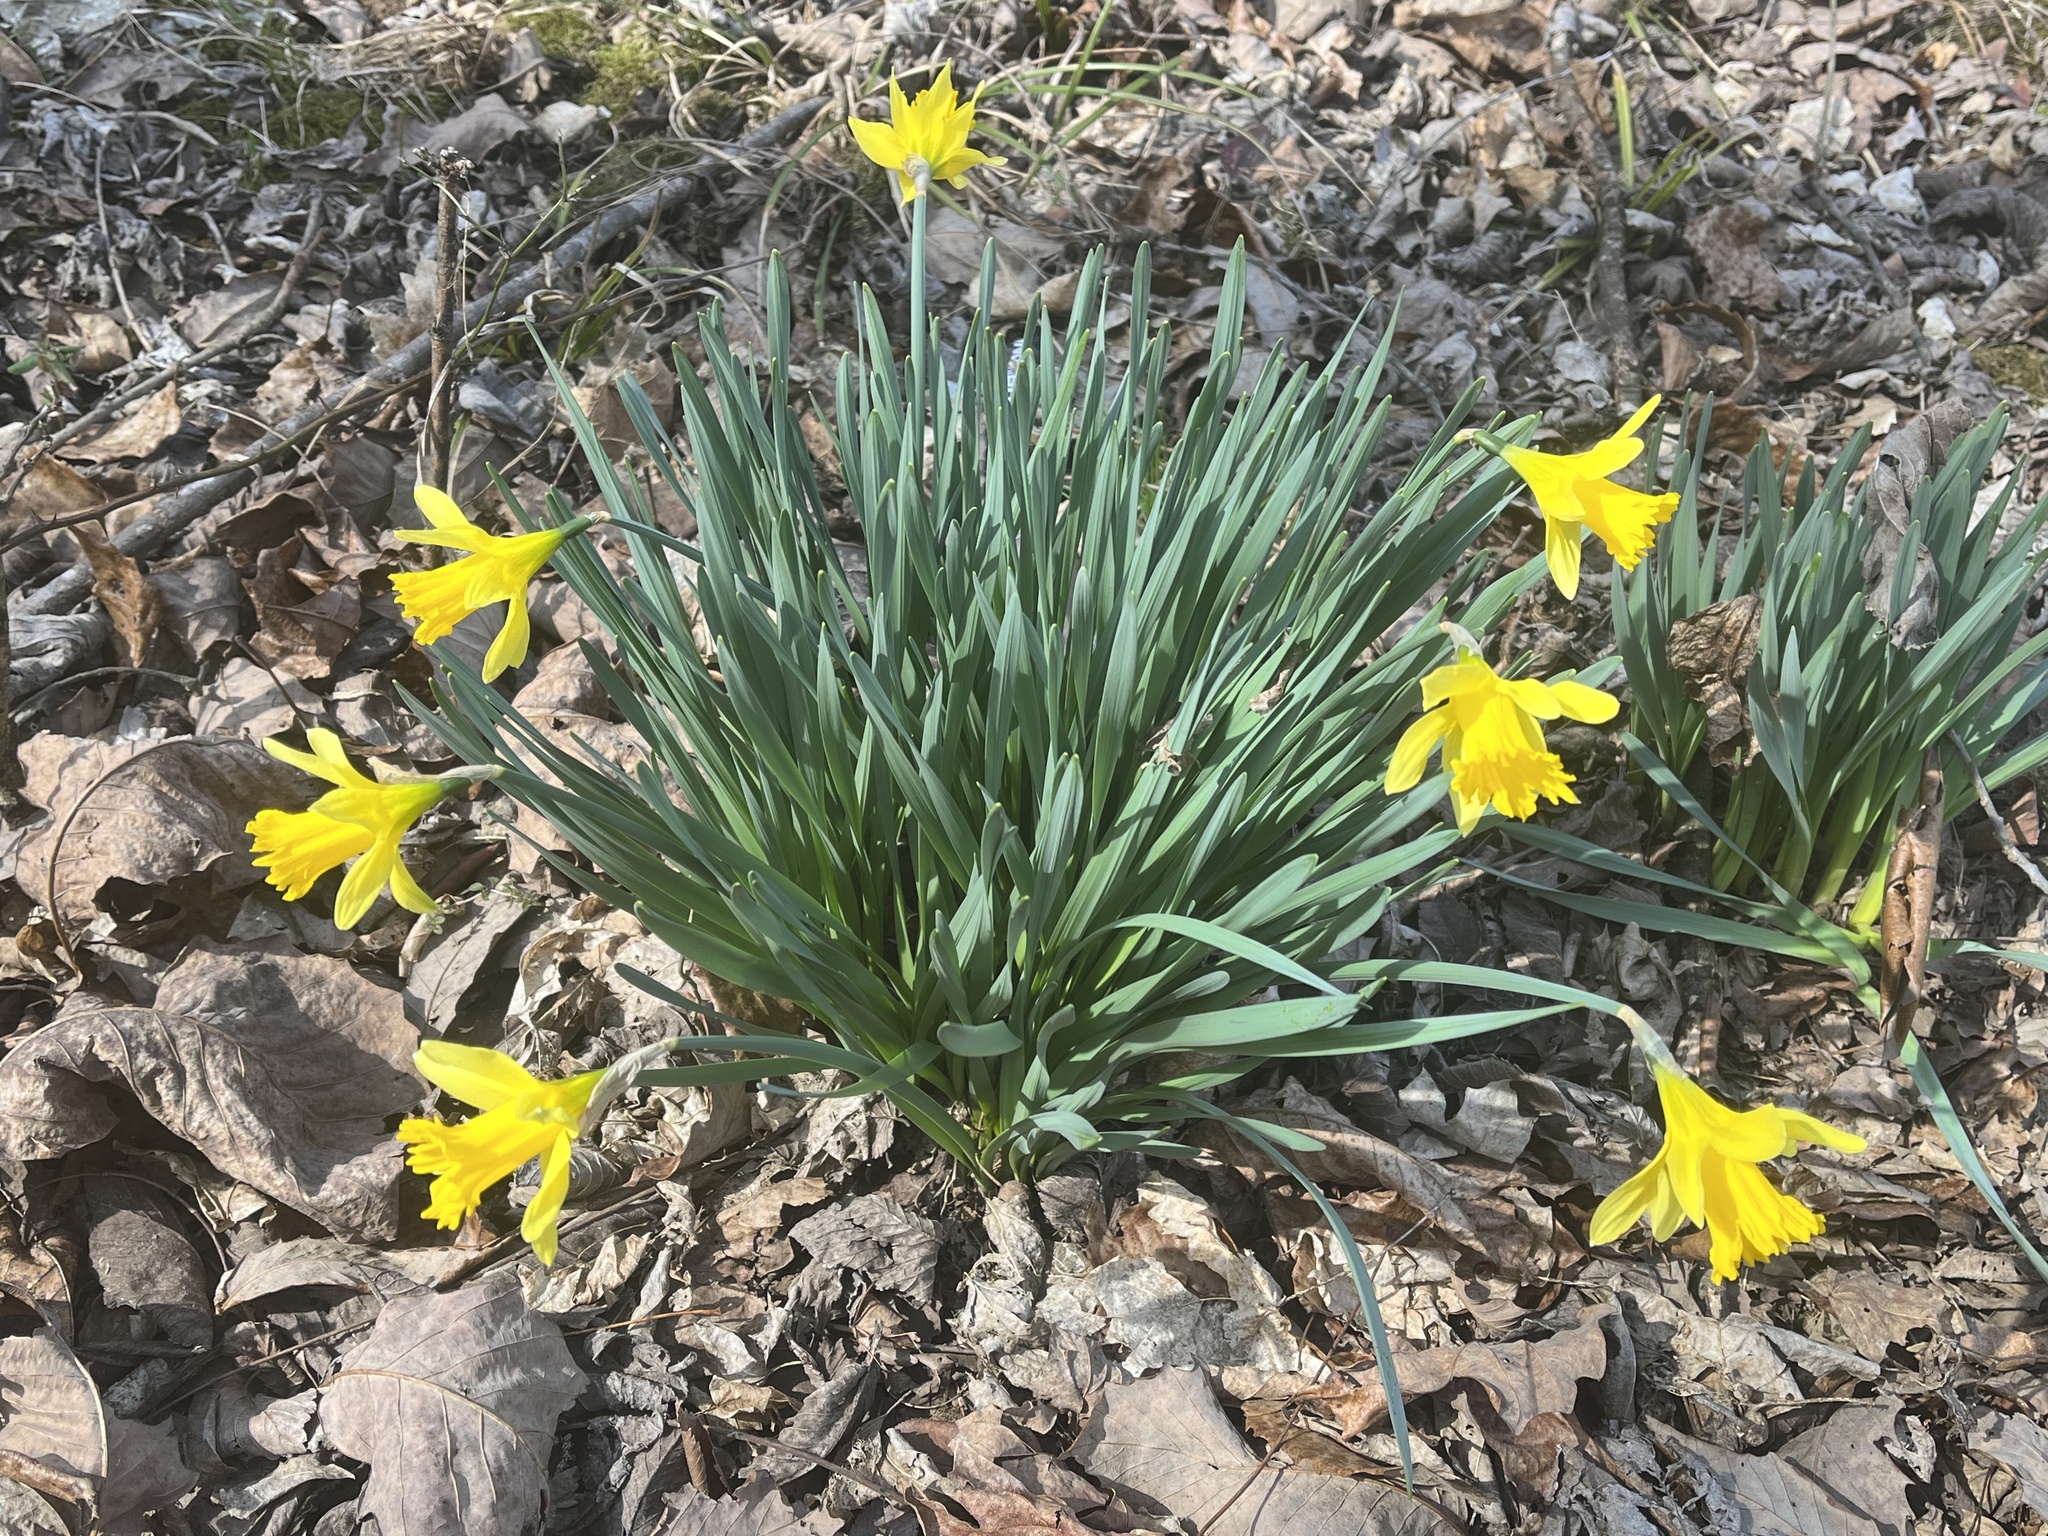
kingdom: Plantae
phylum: Tracheophyta
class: Liliopsida
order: Asparagales
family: Amaryllidaceae
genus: Narcissus
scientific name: Narcissus pseudonarcissus
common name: Daffodil
